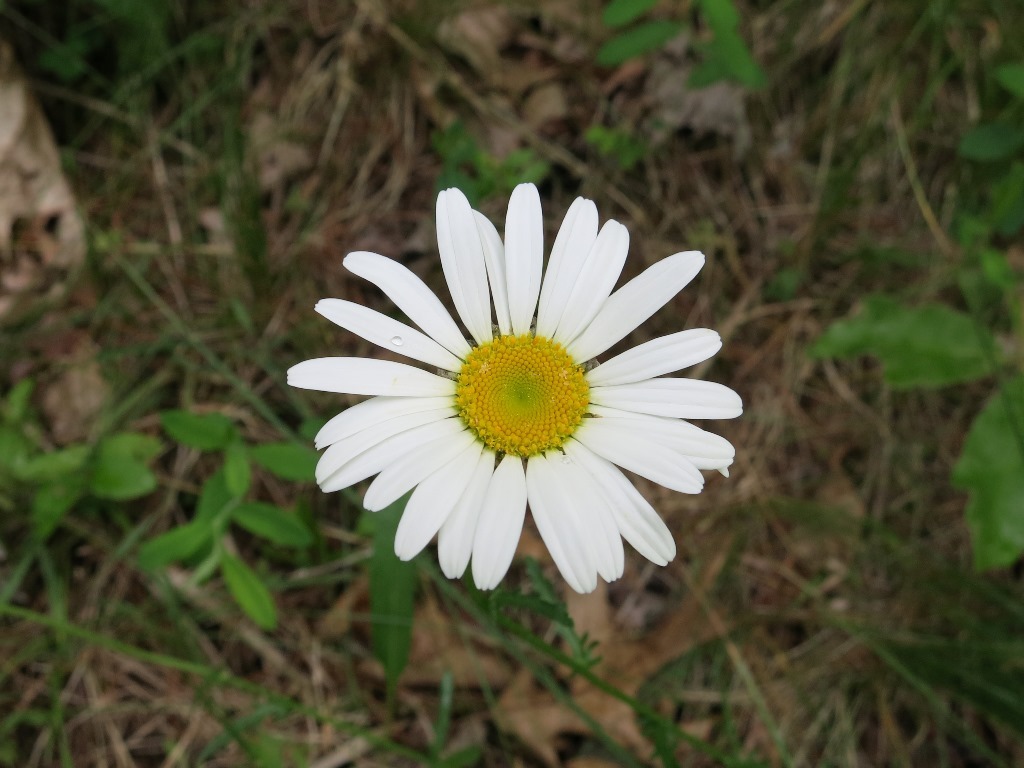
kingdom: Plantae
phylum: Tracheophyta
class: Magnoliopsida
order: Asterales
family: Asteraceae
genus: Leucanthemum
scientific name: Leucanthemum vulgare
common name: Oxeye daisy
